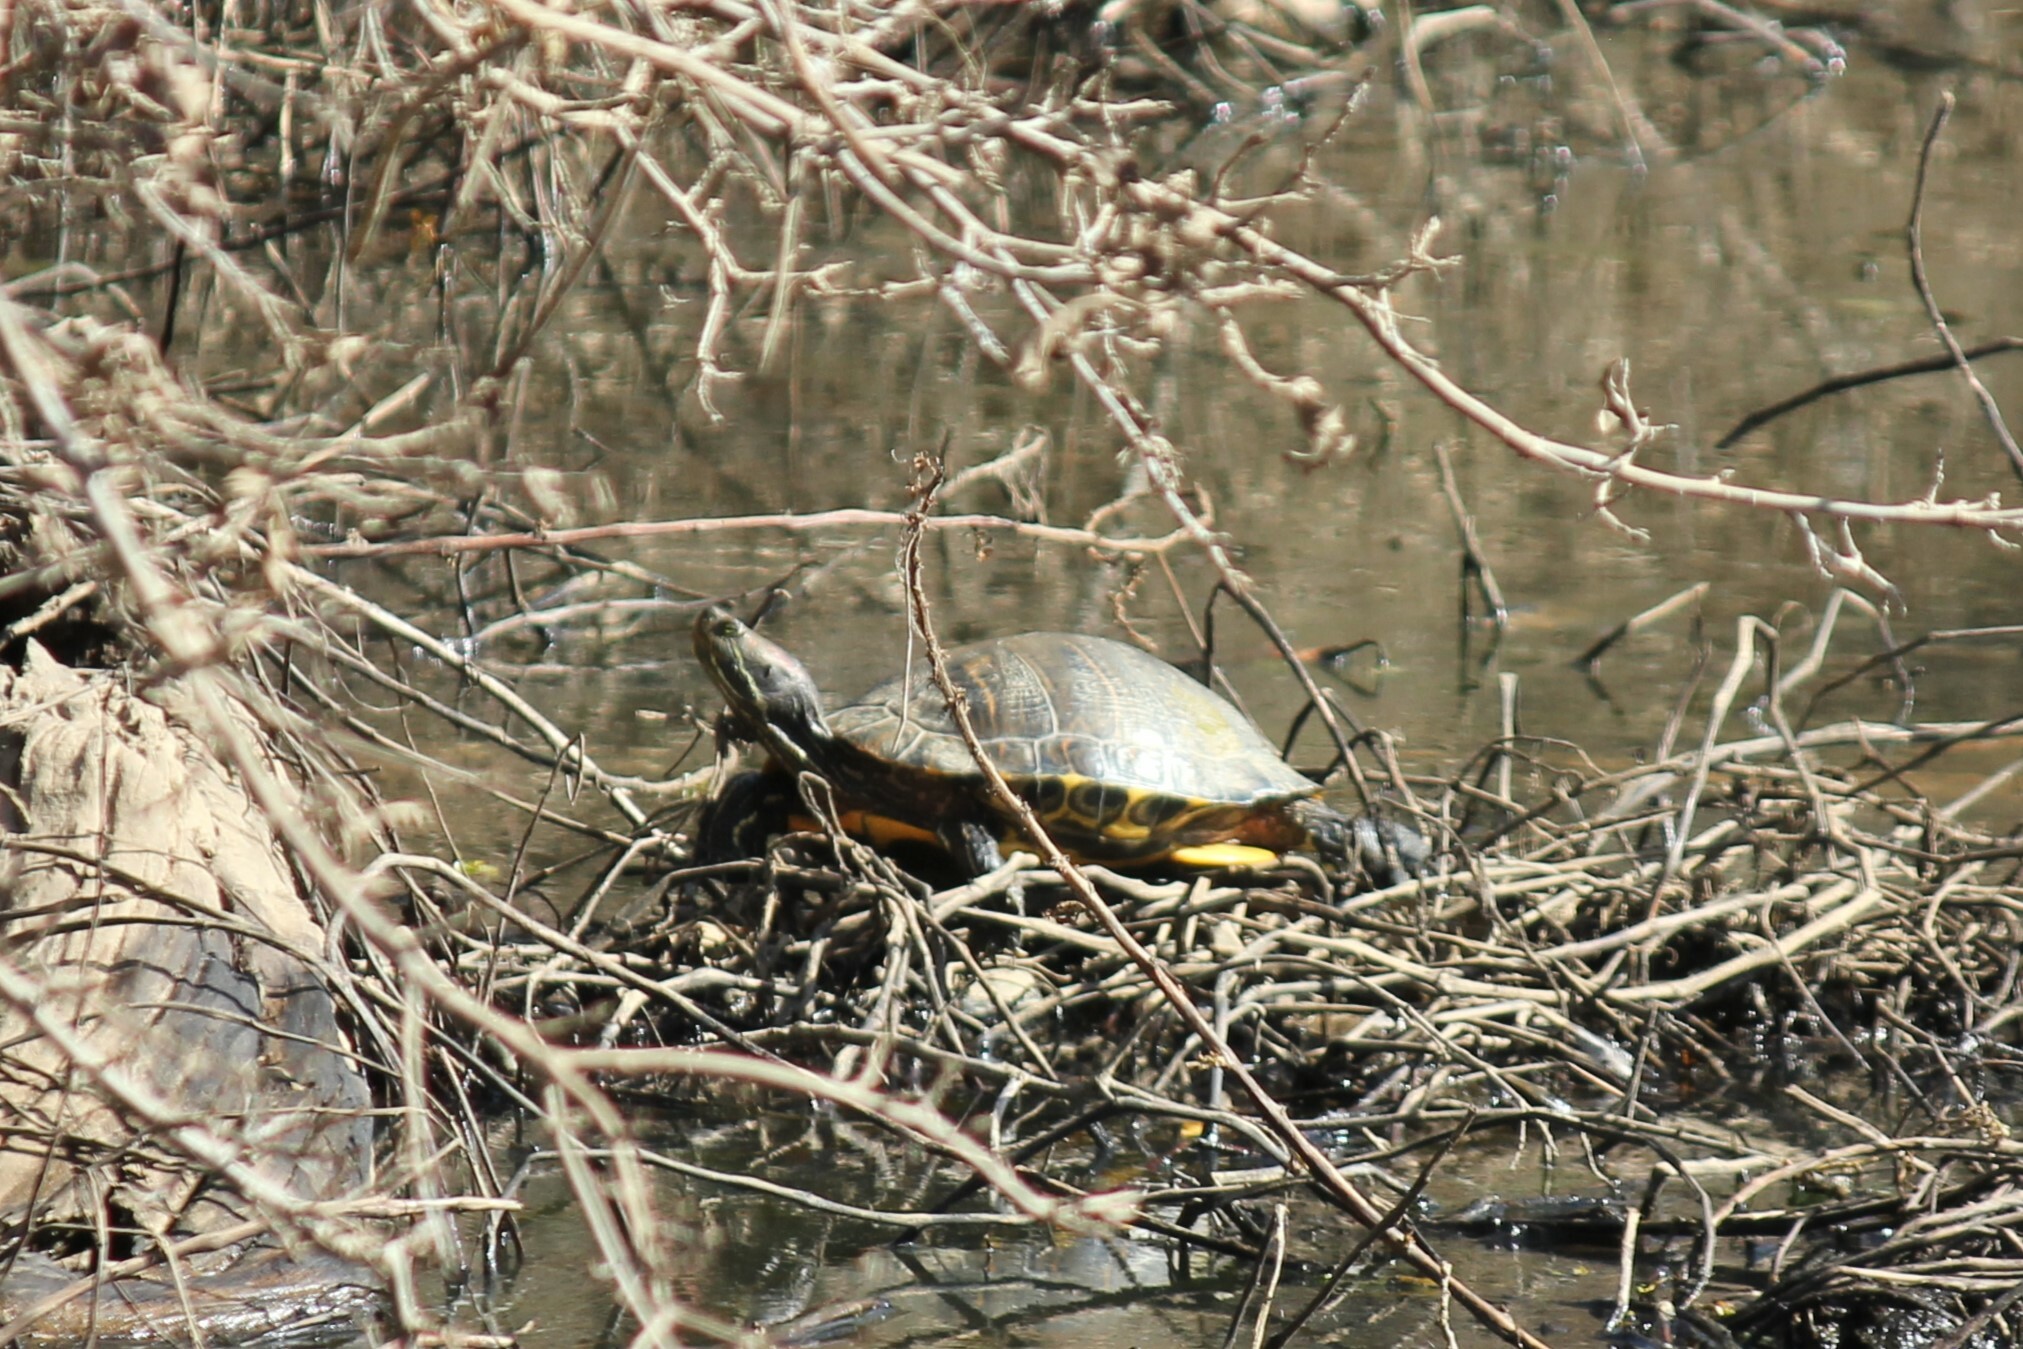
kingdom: Animalia
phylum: Chordata
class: Testudines
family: Emydidae
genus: Trachemys
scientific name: Trachemys scripta
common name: Slider
